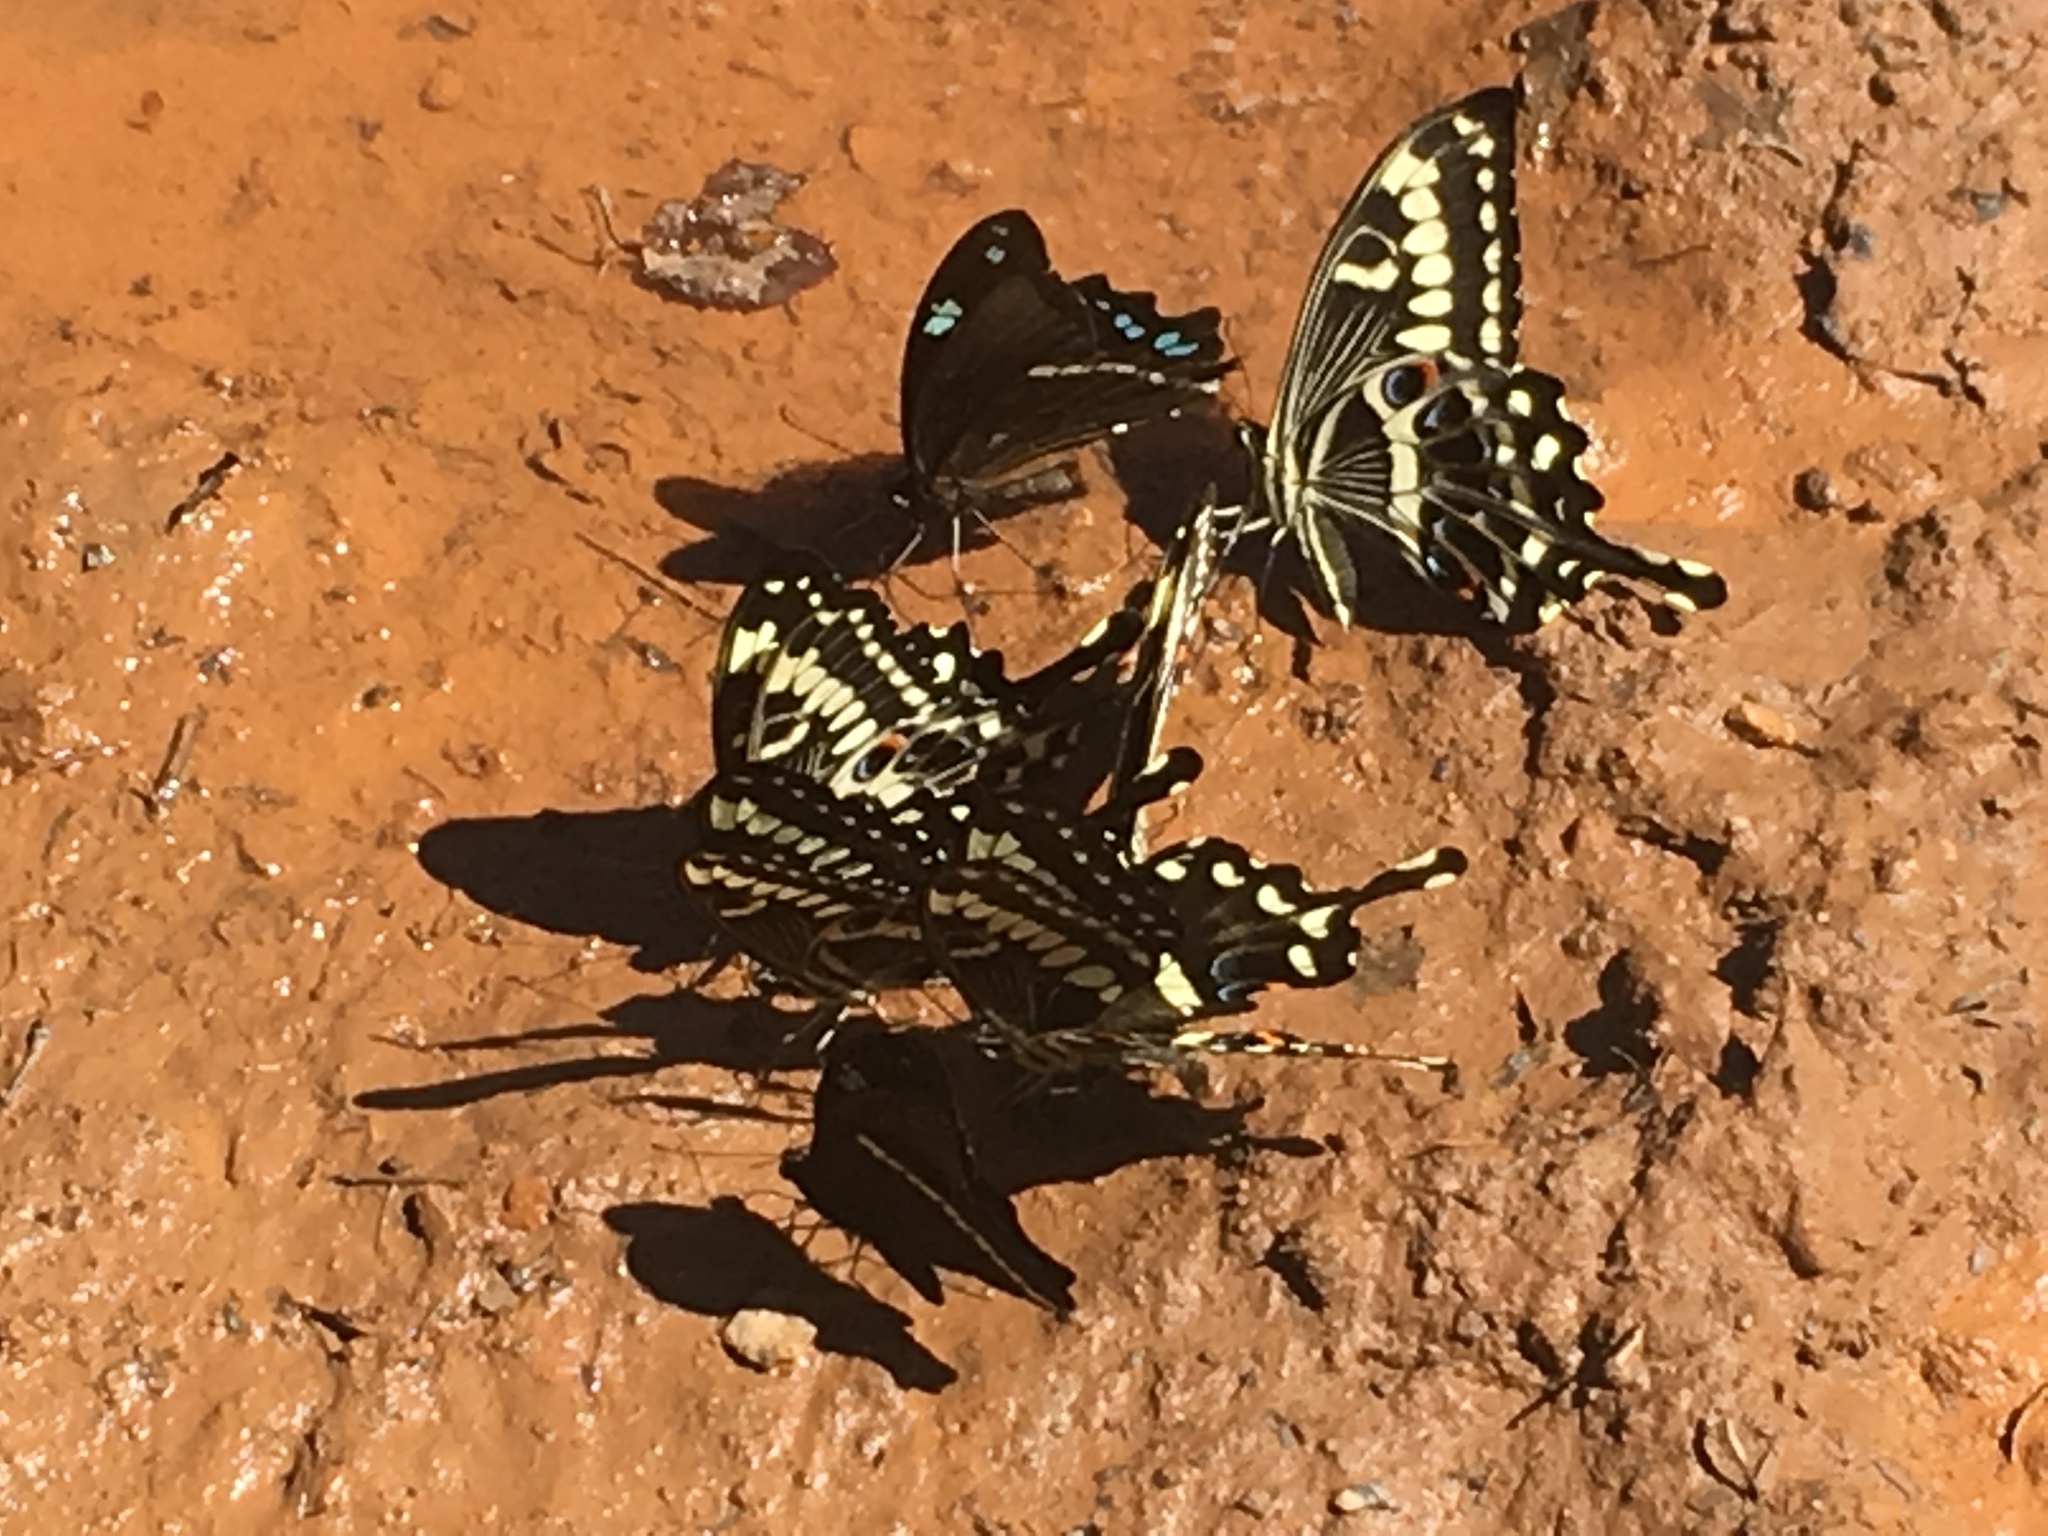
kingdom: Animalia
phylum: Arthropoda
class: Insecta
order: Lepidoptera
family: Papilionidae
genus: Papilio
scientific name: Papilio ophidicephalus
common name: Emperor swallowtail
